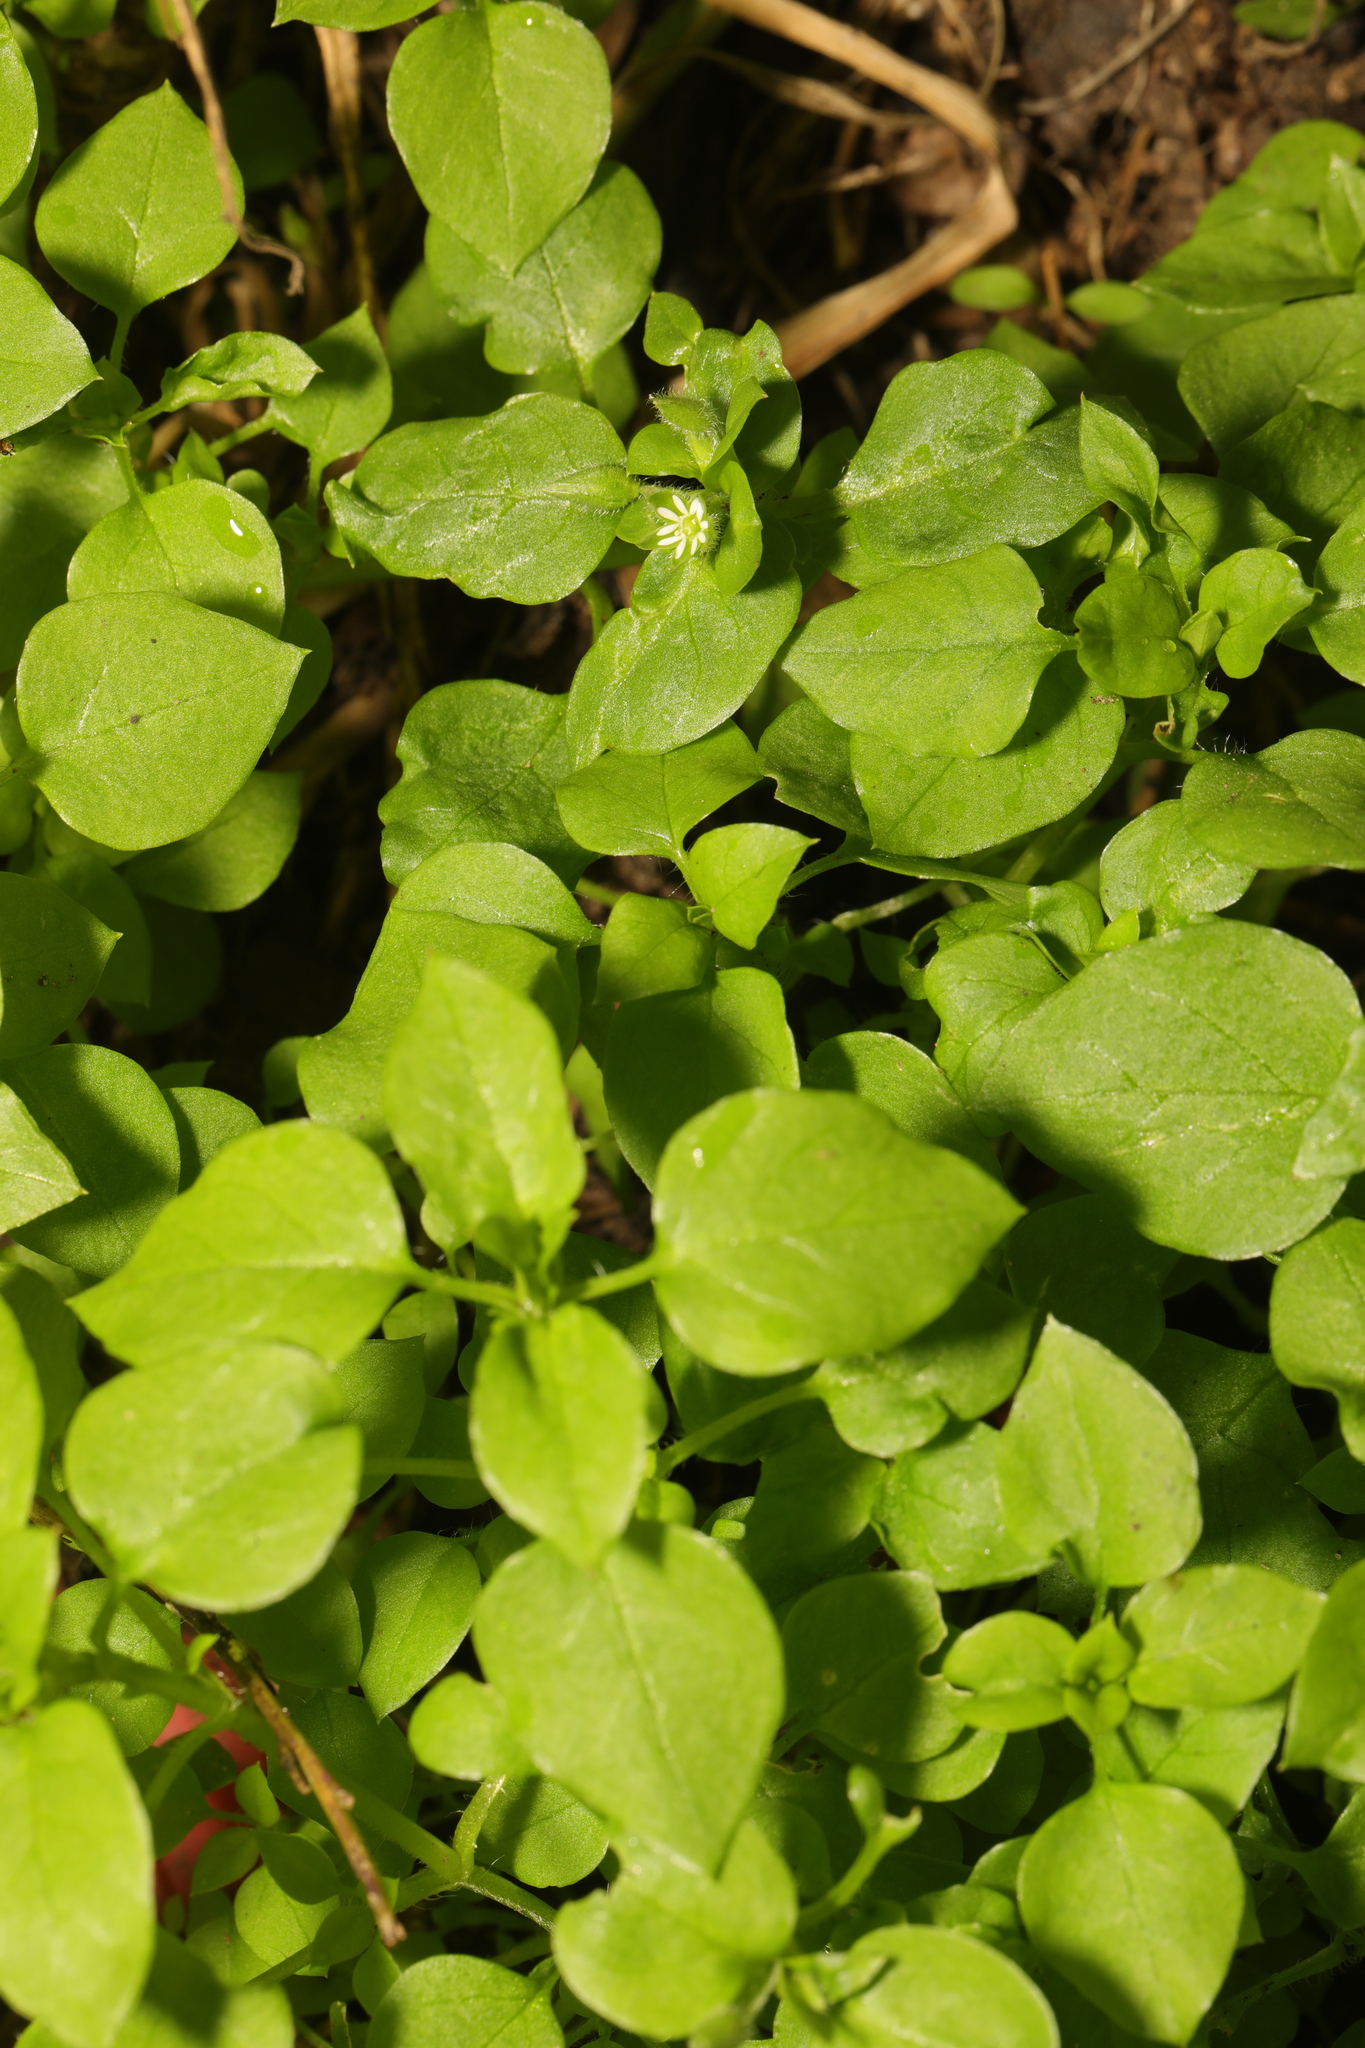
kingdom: Plantae
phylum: Tracheophyta
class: Magnoliopsida
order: Caryophyllales
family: Caryophyllaceae
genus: Stellaria
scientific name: Stellaria media
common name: Common chickweed
